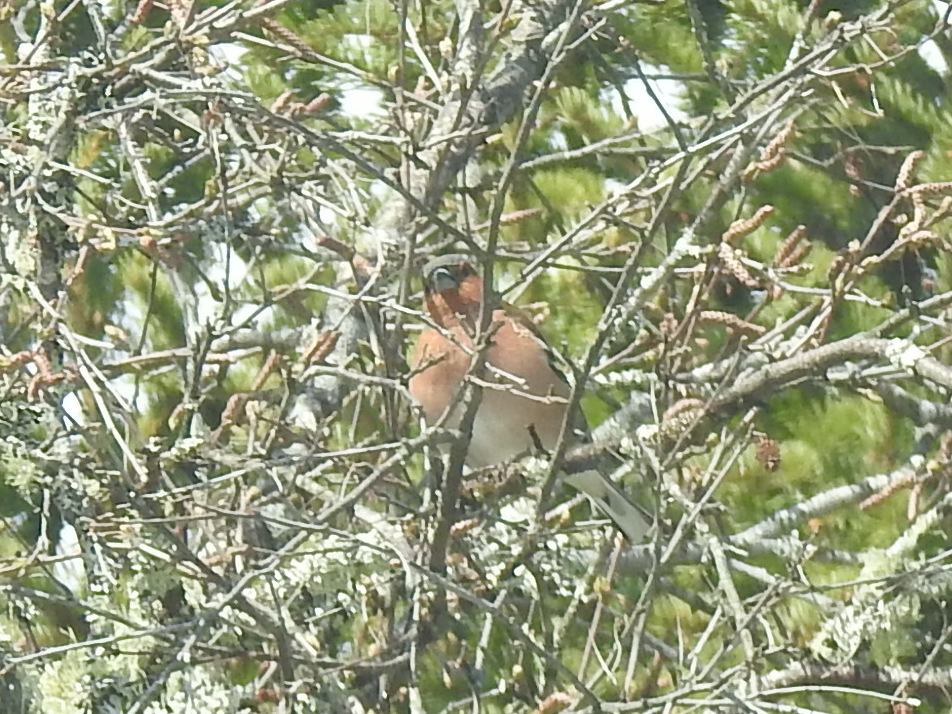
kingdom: Animalia
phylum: Chordata
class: Aves
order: Passeriformes
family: Fringillidae
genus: Fringilla
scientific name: Fringilla coelebs
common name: Common chaffinch
